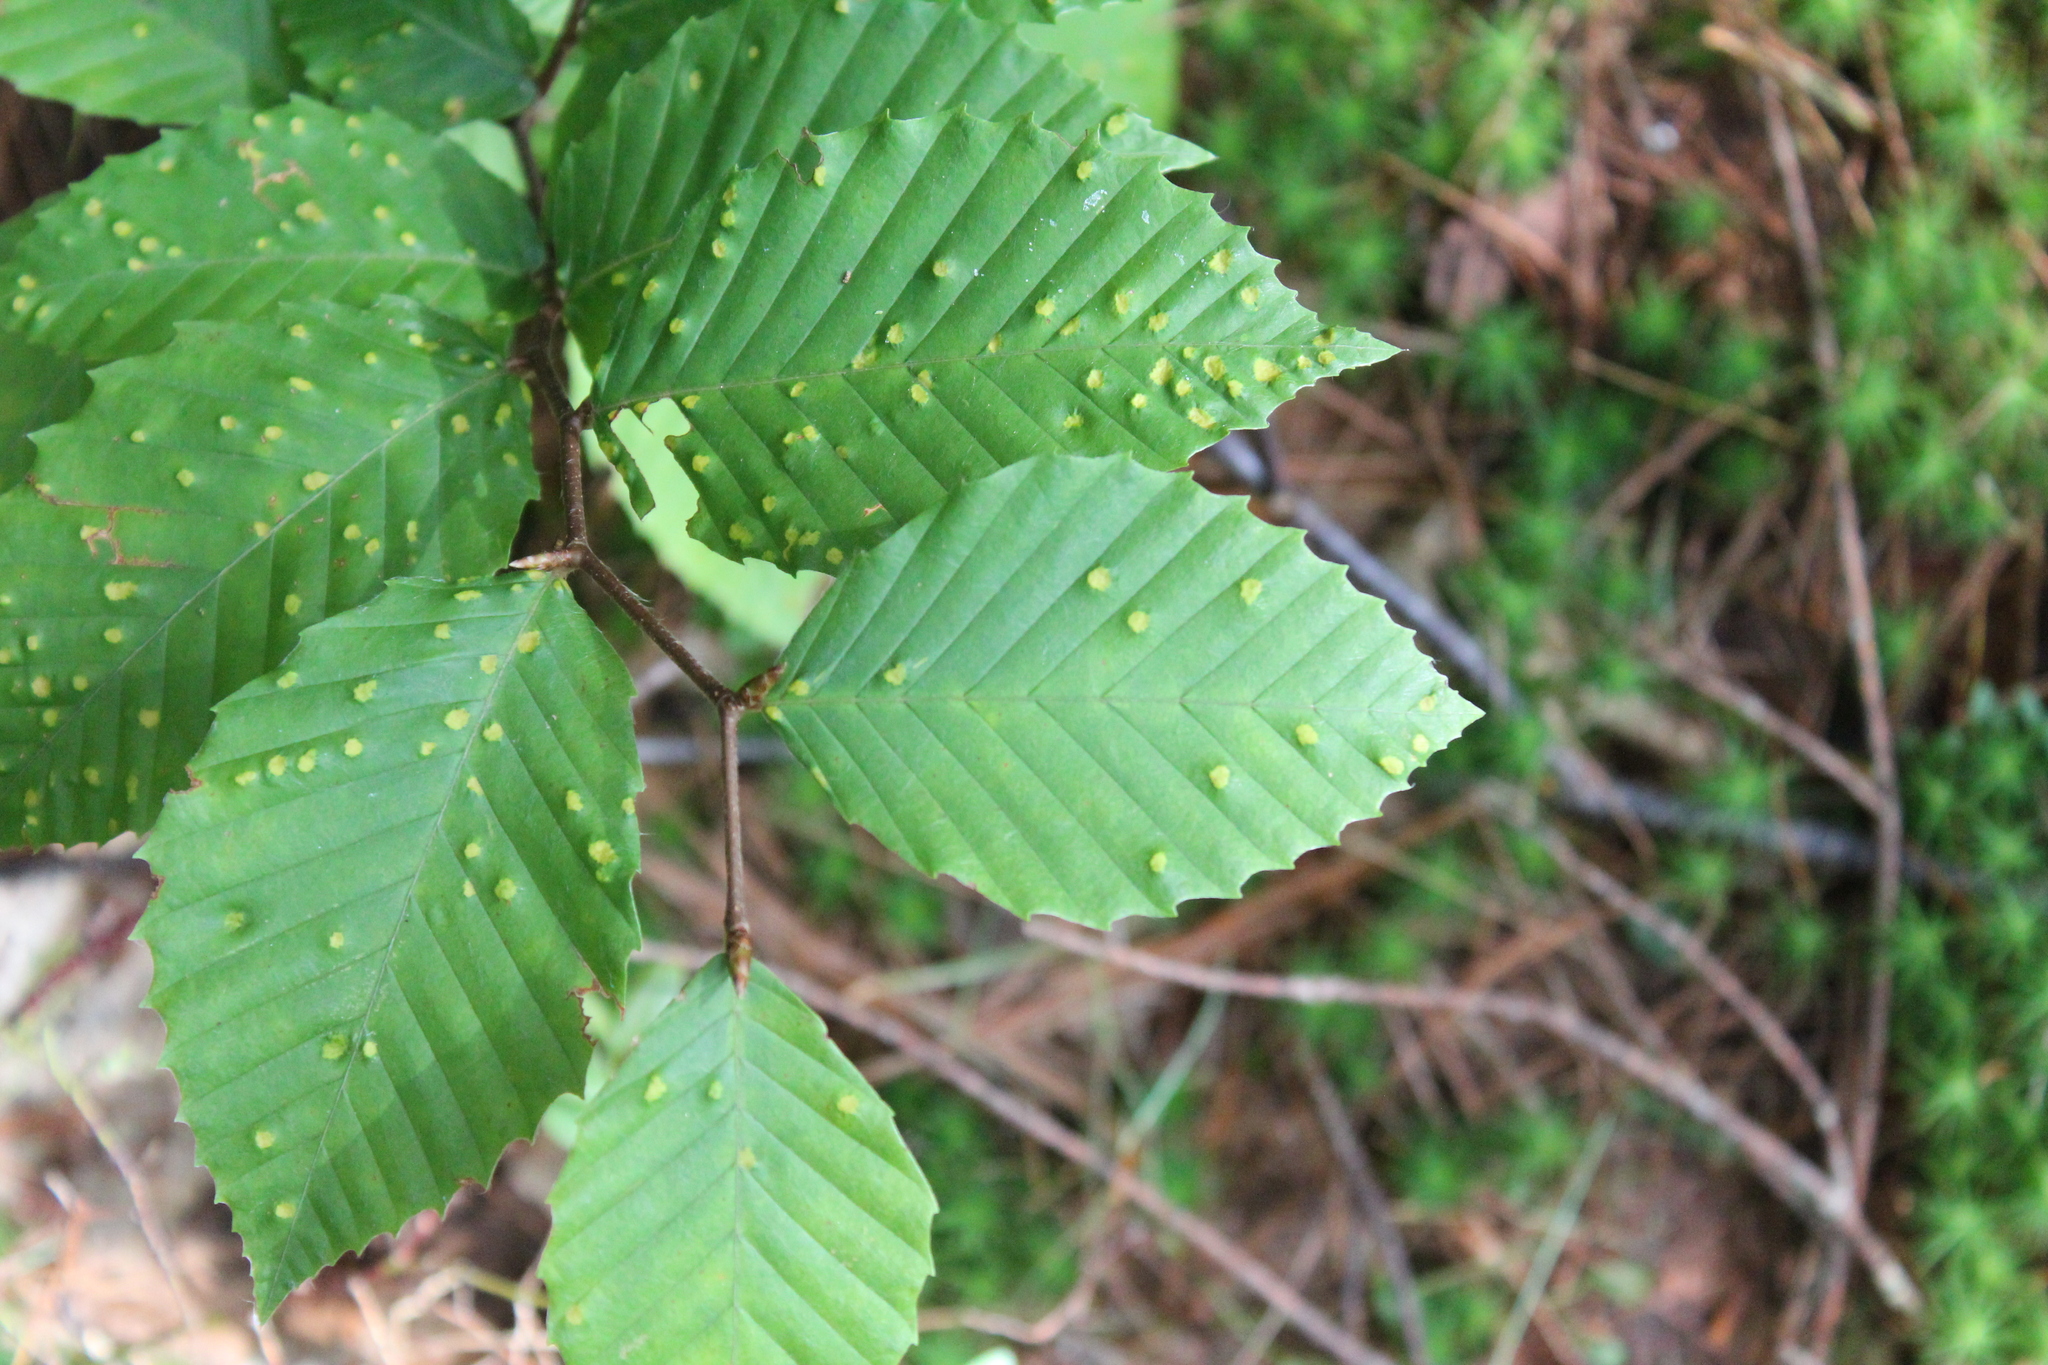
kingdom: Plantae
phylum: Tracheophyta
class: Magnoliopsida
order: Fagales
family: Fagaceae
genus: Fagus
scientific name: Fagus grandifolia
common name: American beech
